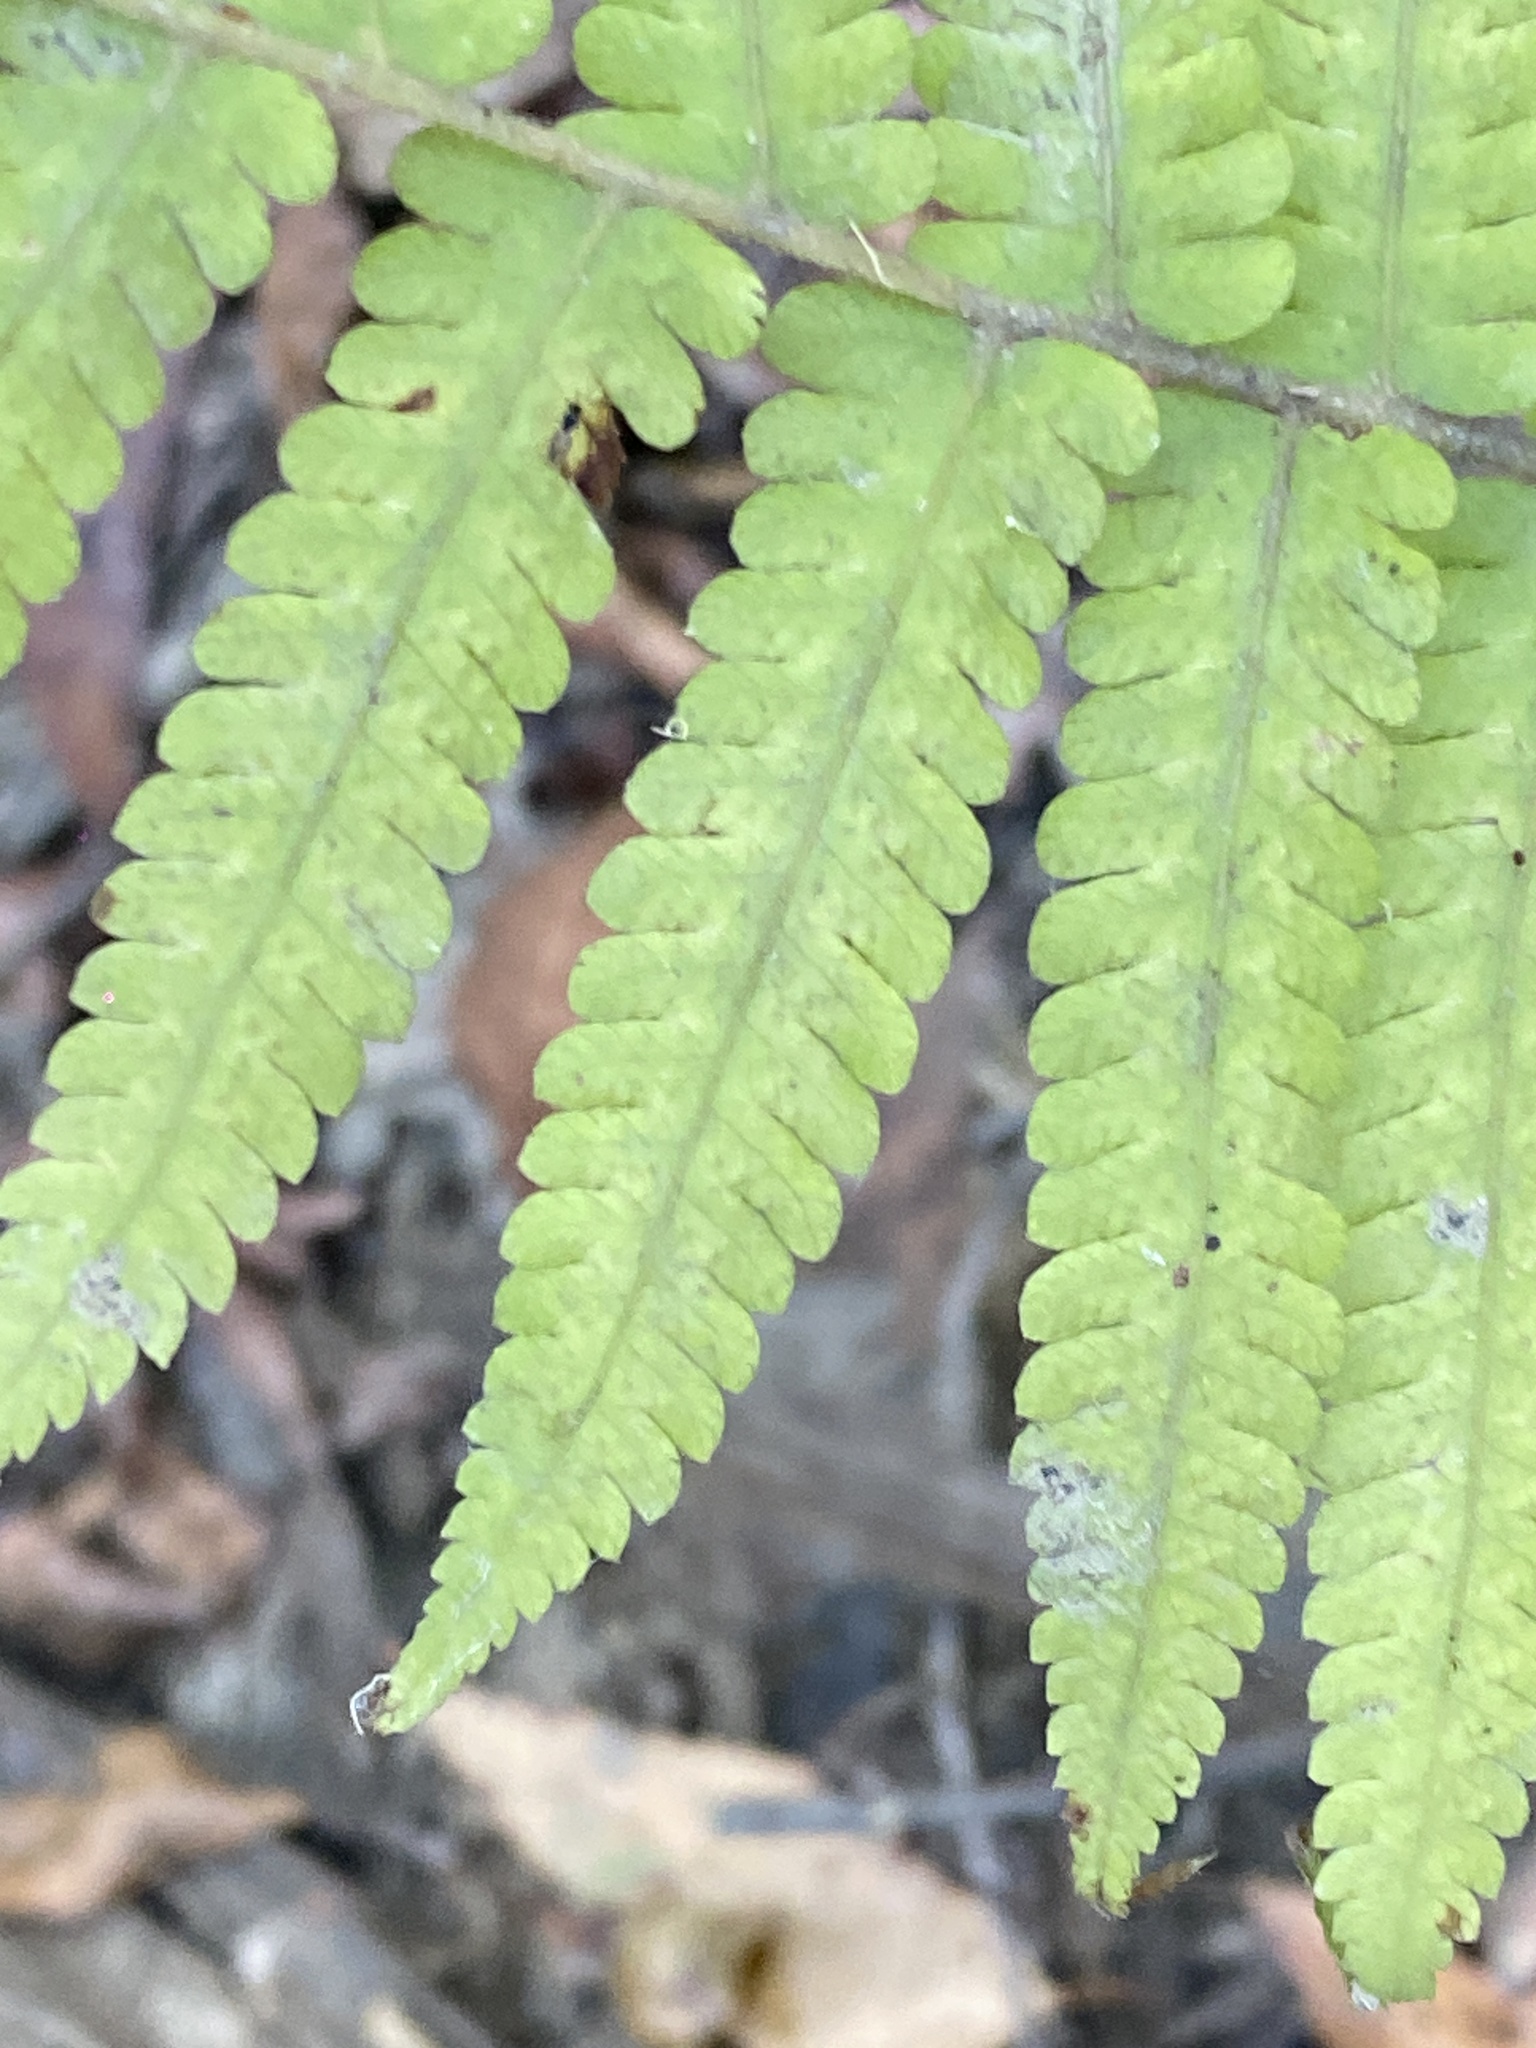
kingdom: Plantae
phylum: Tracheophyta
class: Polypodiopsida
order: Polypodiales
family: Thelypteridaceae
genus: Christella
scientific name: Christella dentata
